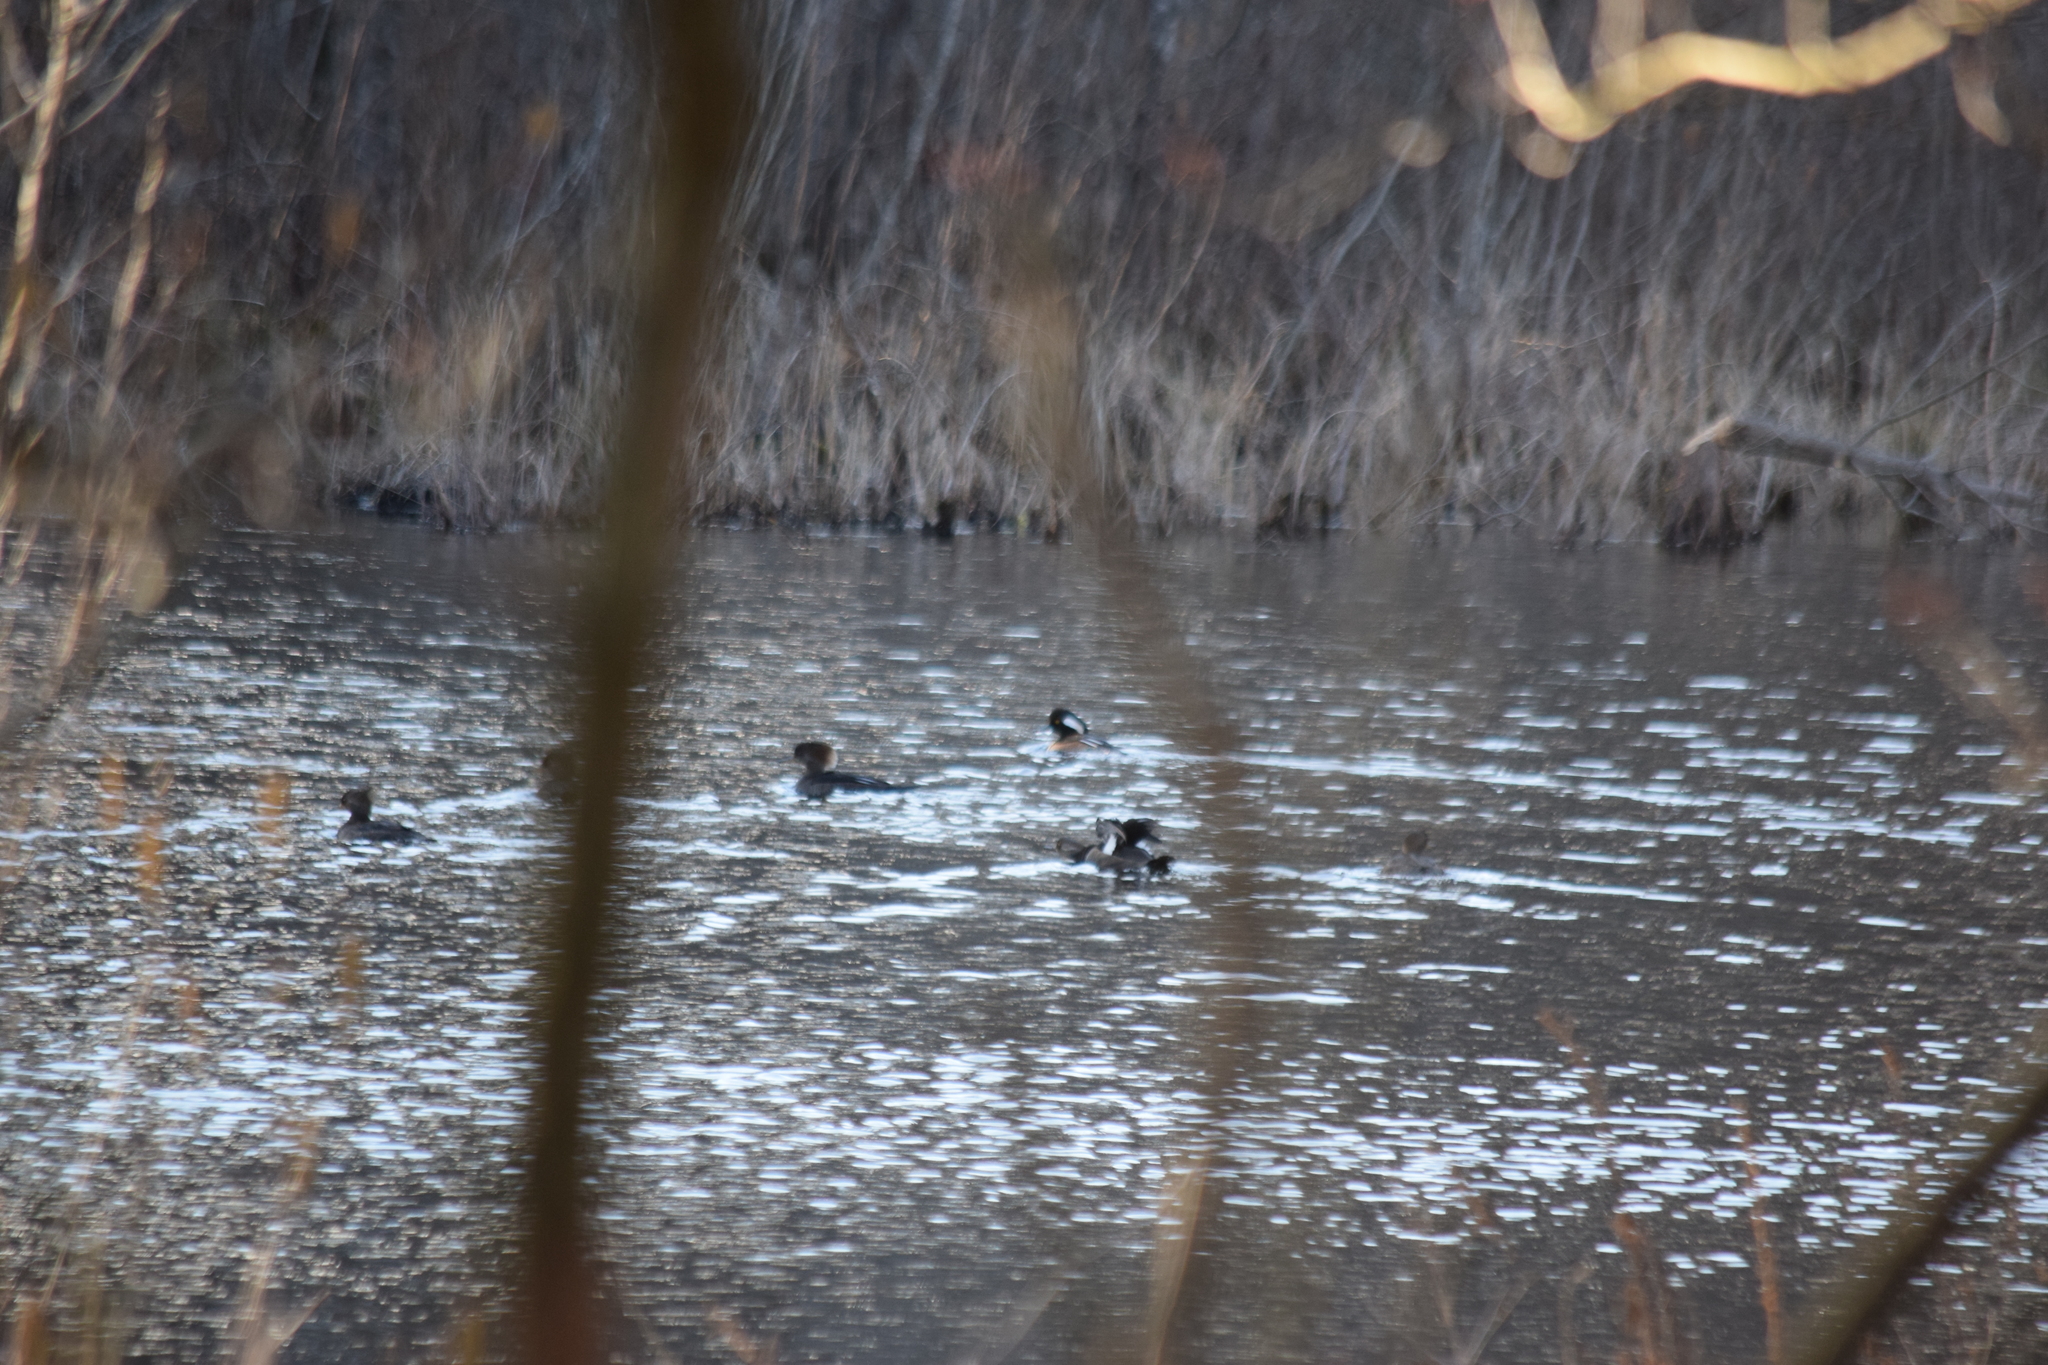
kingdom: Animalia
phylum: Chordata
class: Aves
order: Anseriformes
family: Anatidae
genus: Lophodytes
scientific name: Lophodytes cucullatus
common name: Hooded merganser
